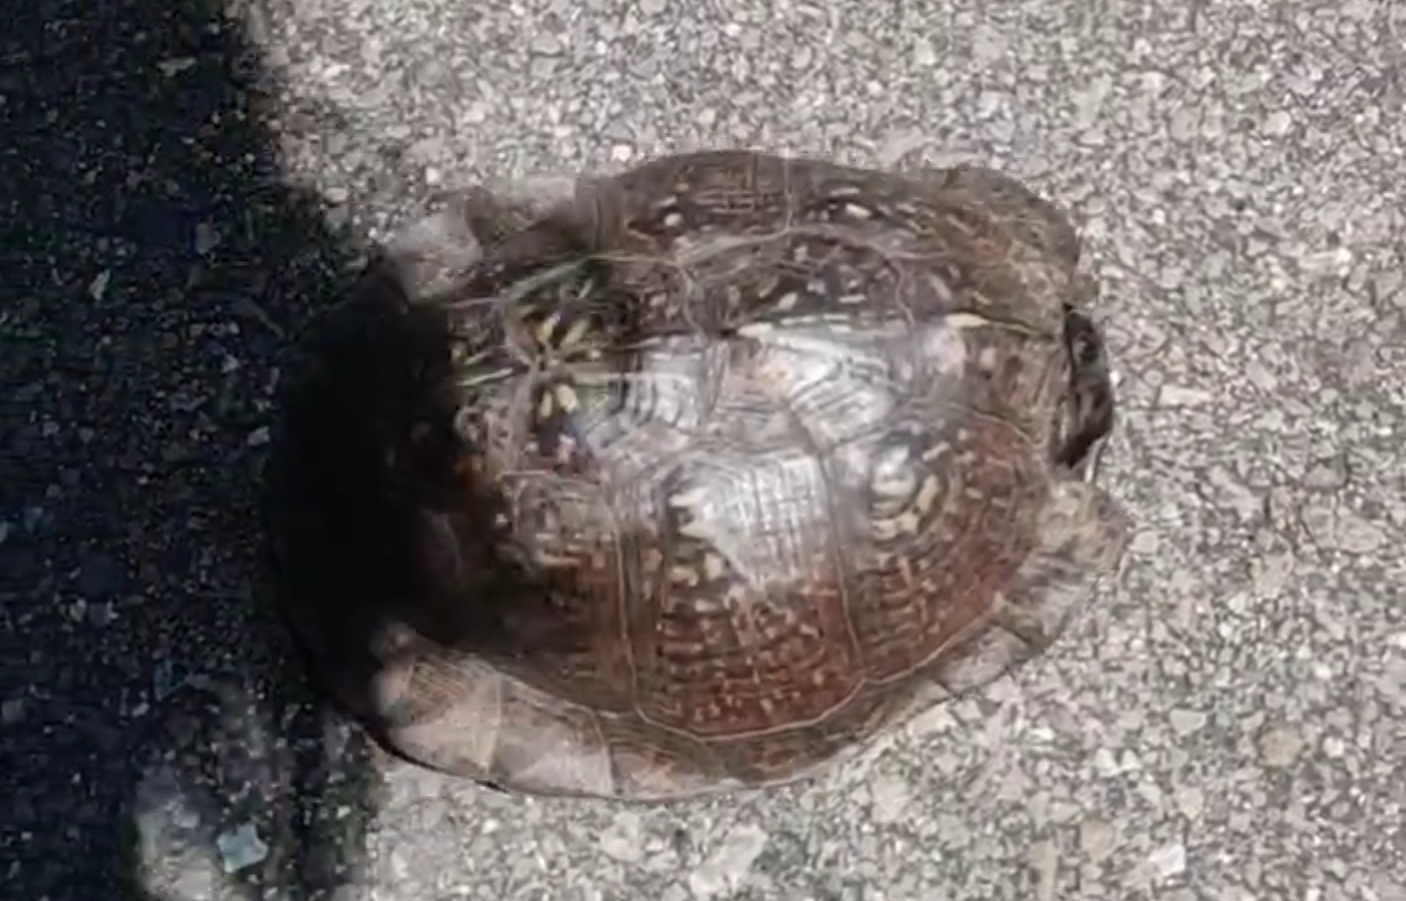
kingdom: Animalia
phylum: Chordata
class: Testudines
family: Emydidae
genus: Terrapene
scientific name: Terrapene carolina
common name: Common box turtle
